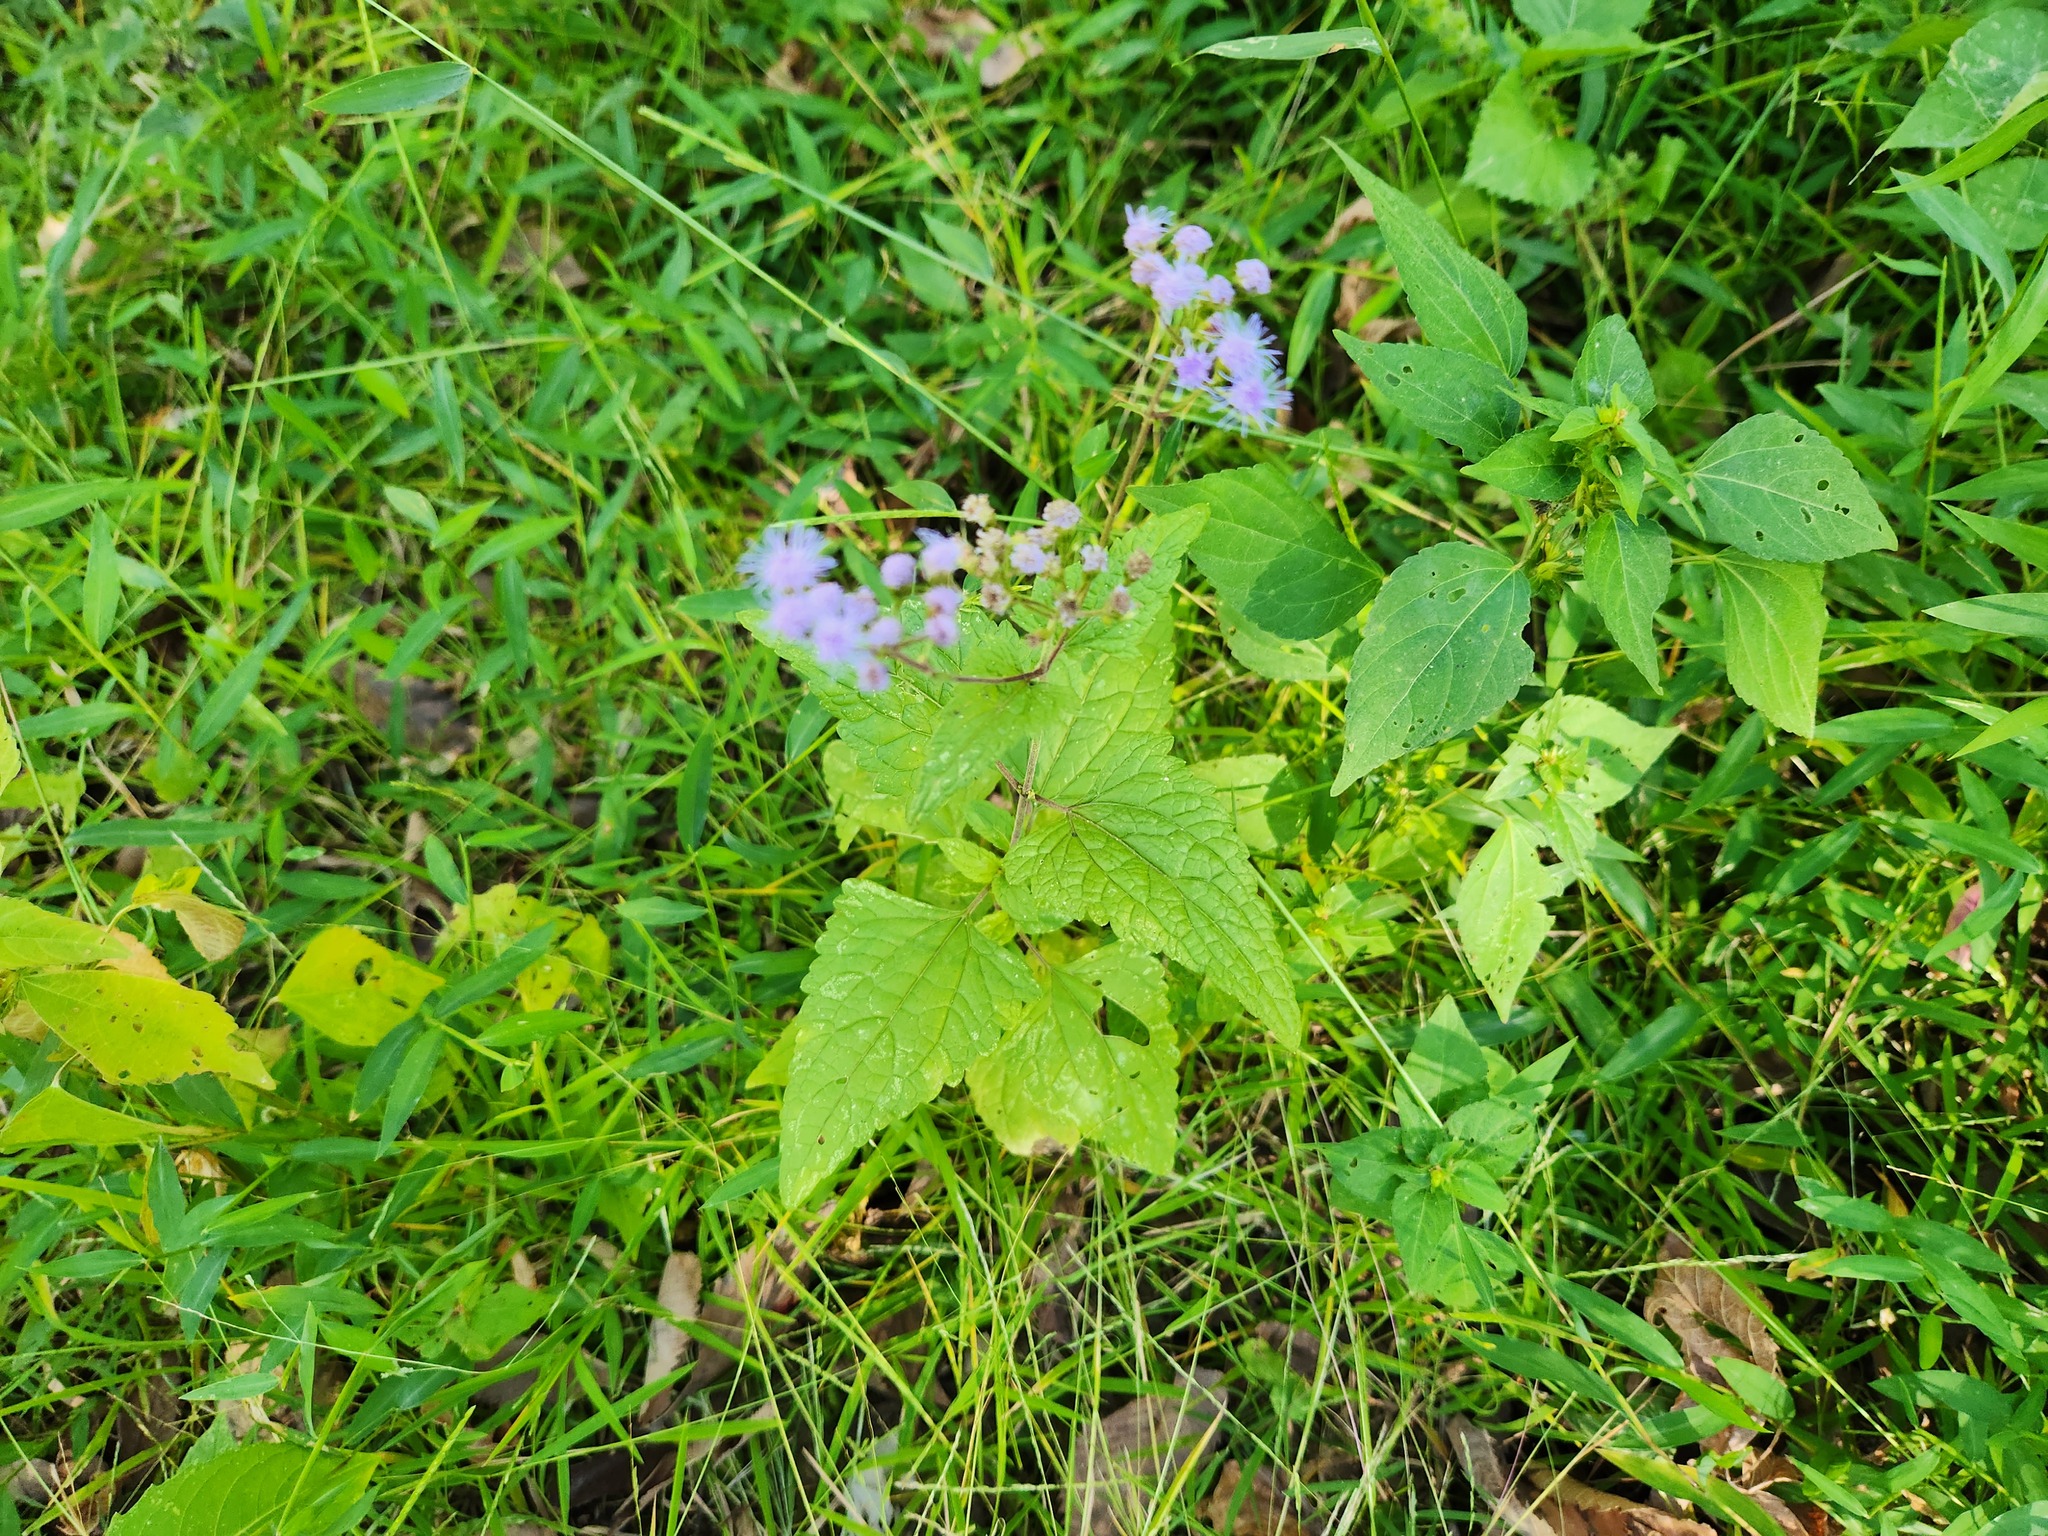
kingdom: Plantae
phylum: Tracheophyta
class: Magnoliopsida
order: Asterales
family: Asteraceae
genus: Conoclinium
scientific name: Conoclinium coelestinum
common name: Blue mistflower
